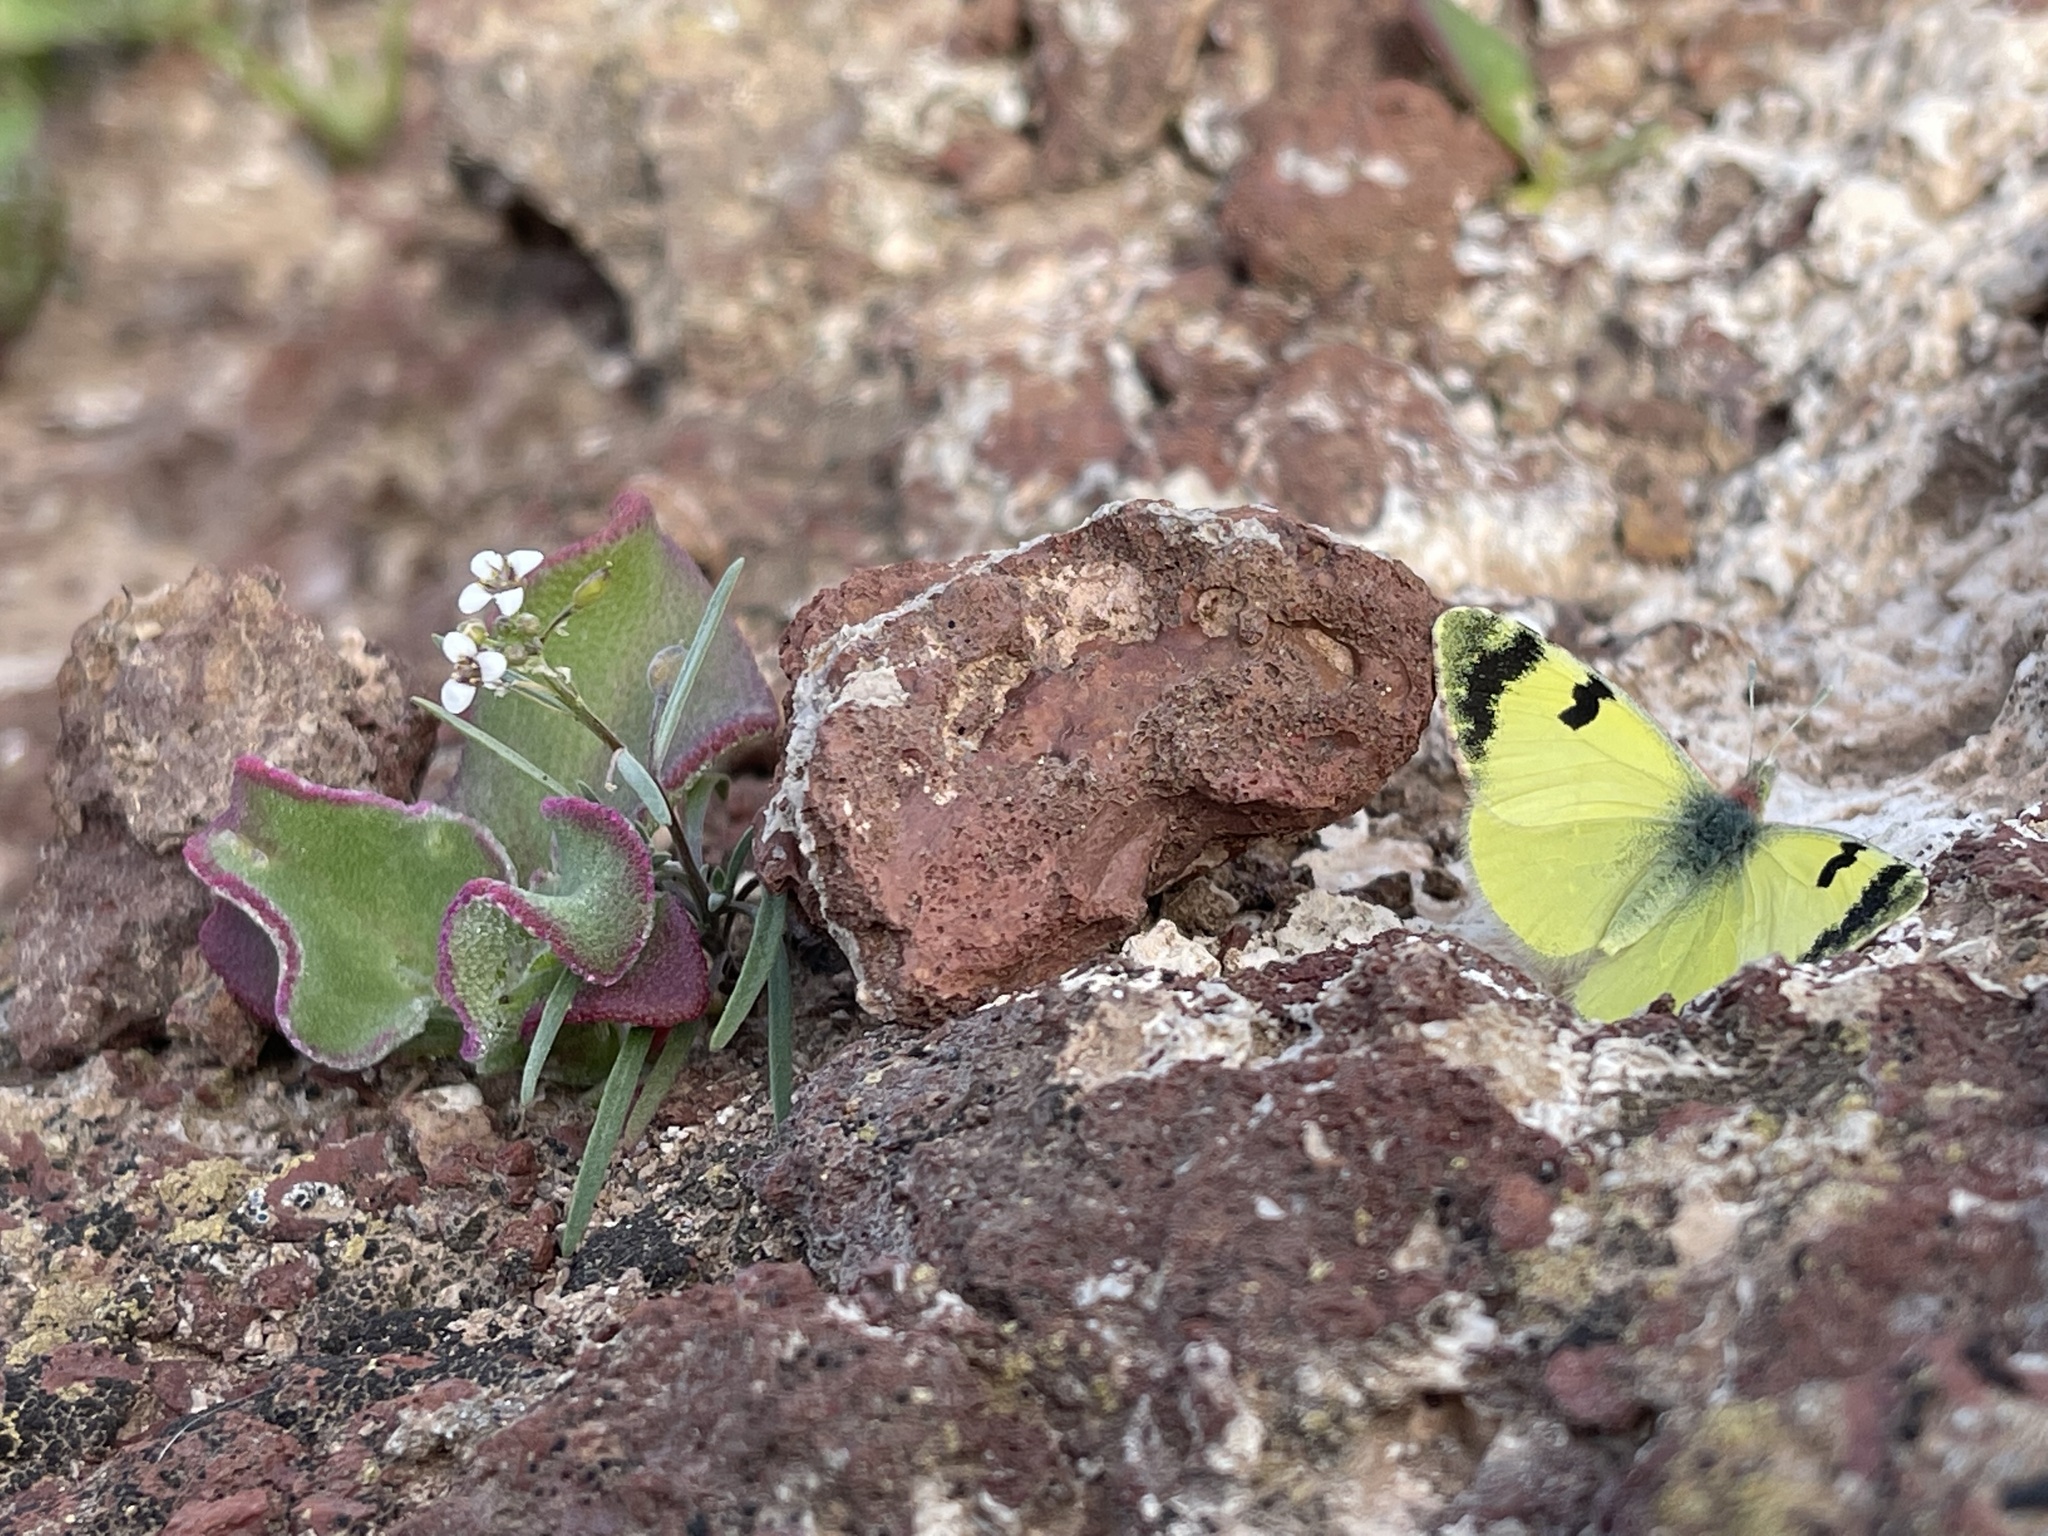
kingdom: Animalia
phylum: Arthropoda
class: Insecta
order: Lepidoptera
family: Pieridae
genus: Elphinstonia
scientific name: Elphinstonia charlonia
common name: Greenish black-tip
